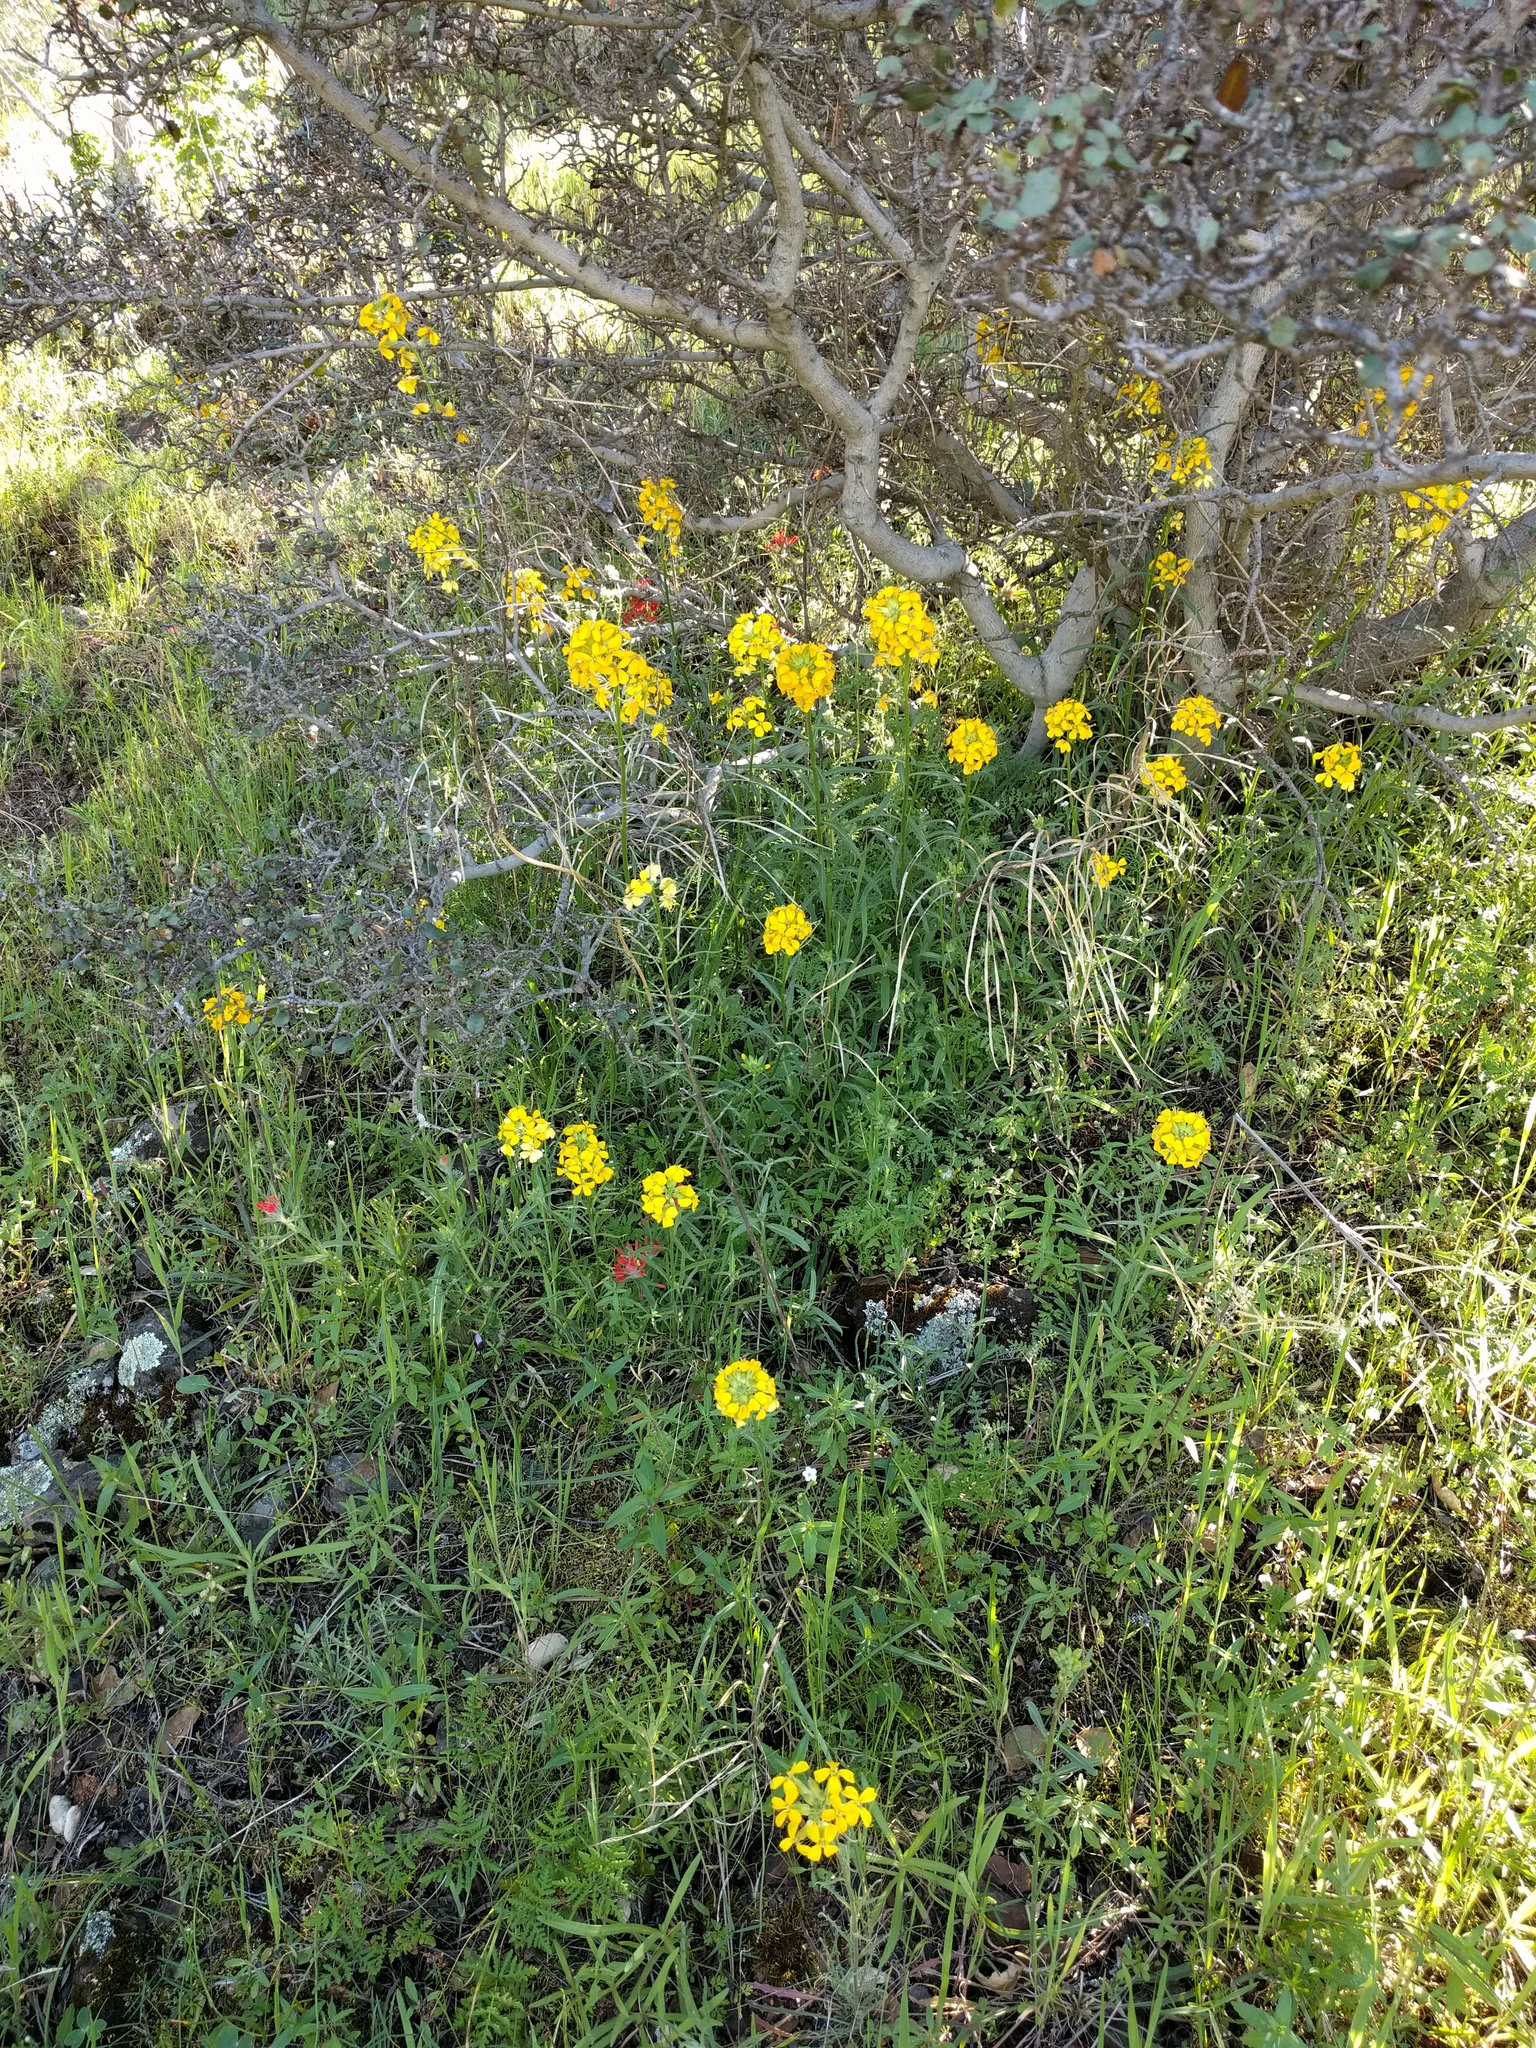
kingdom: Plantae
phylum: Tracheophyta
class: Magnoliopsida
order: Brassicales
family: Brassicaceae
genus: Erysimum
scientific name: Erysimum capitatum
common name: Western wallflower
